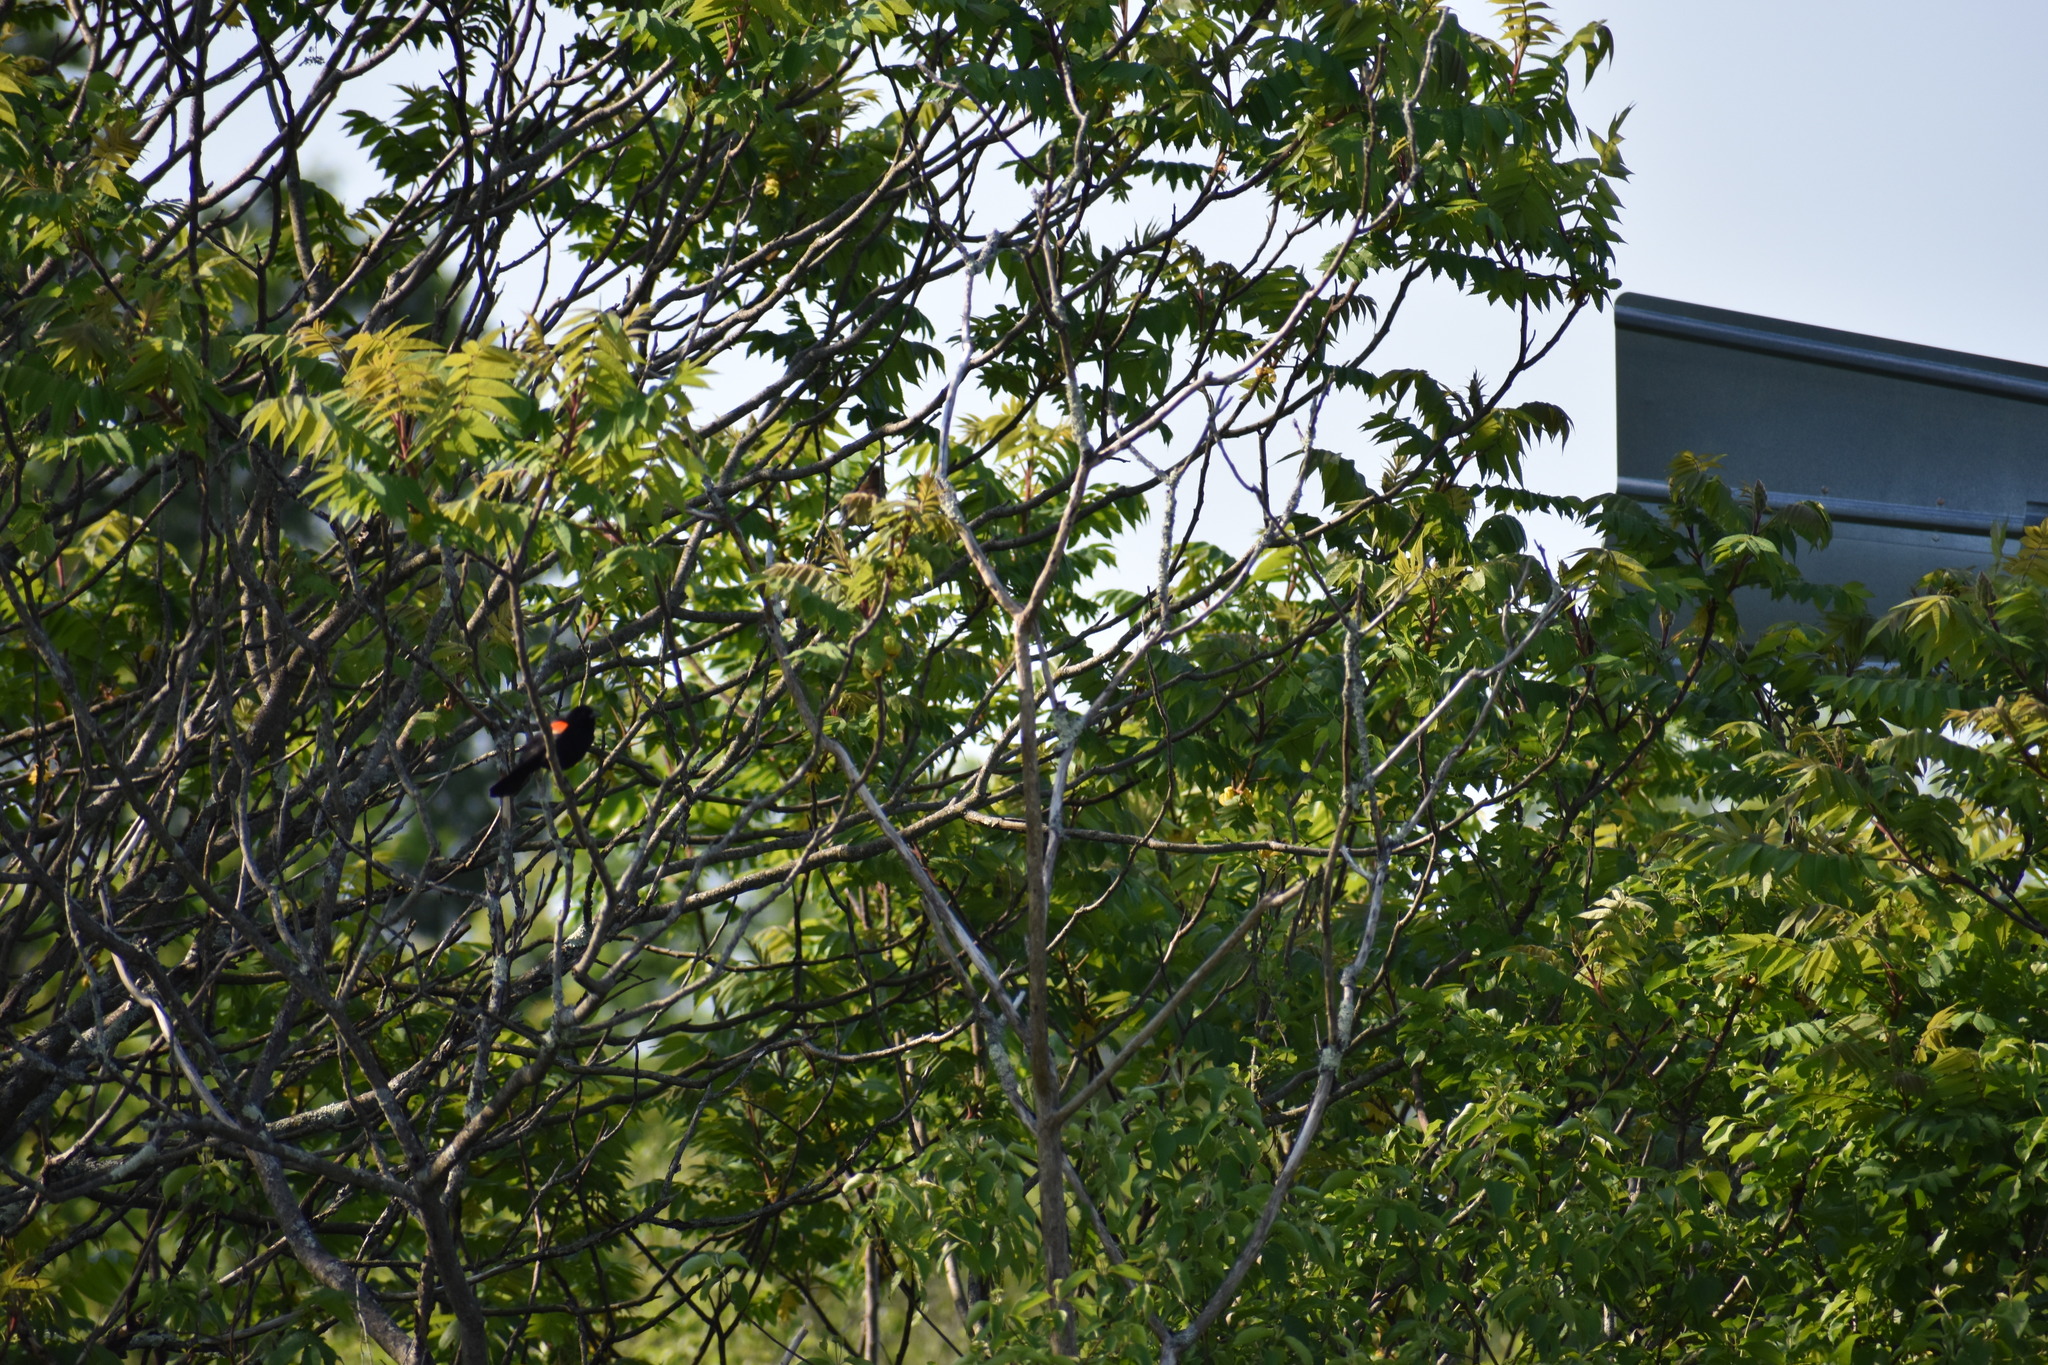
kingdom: Animalia
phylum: Chordata
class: Aves
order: Passeriformes
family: Icteridae
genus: Agelaius
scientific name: Agelaius phoeniceus
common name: Red-winged blackbird
